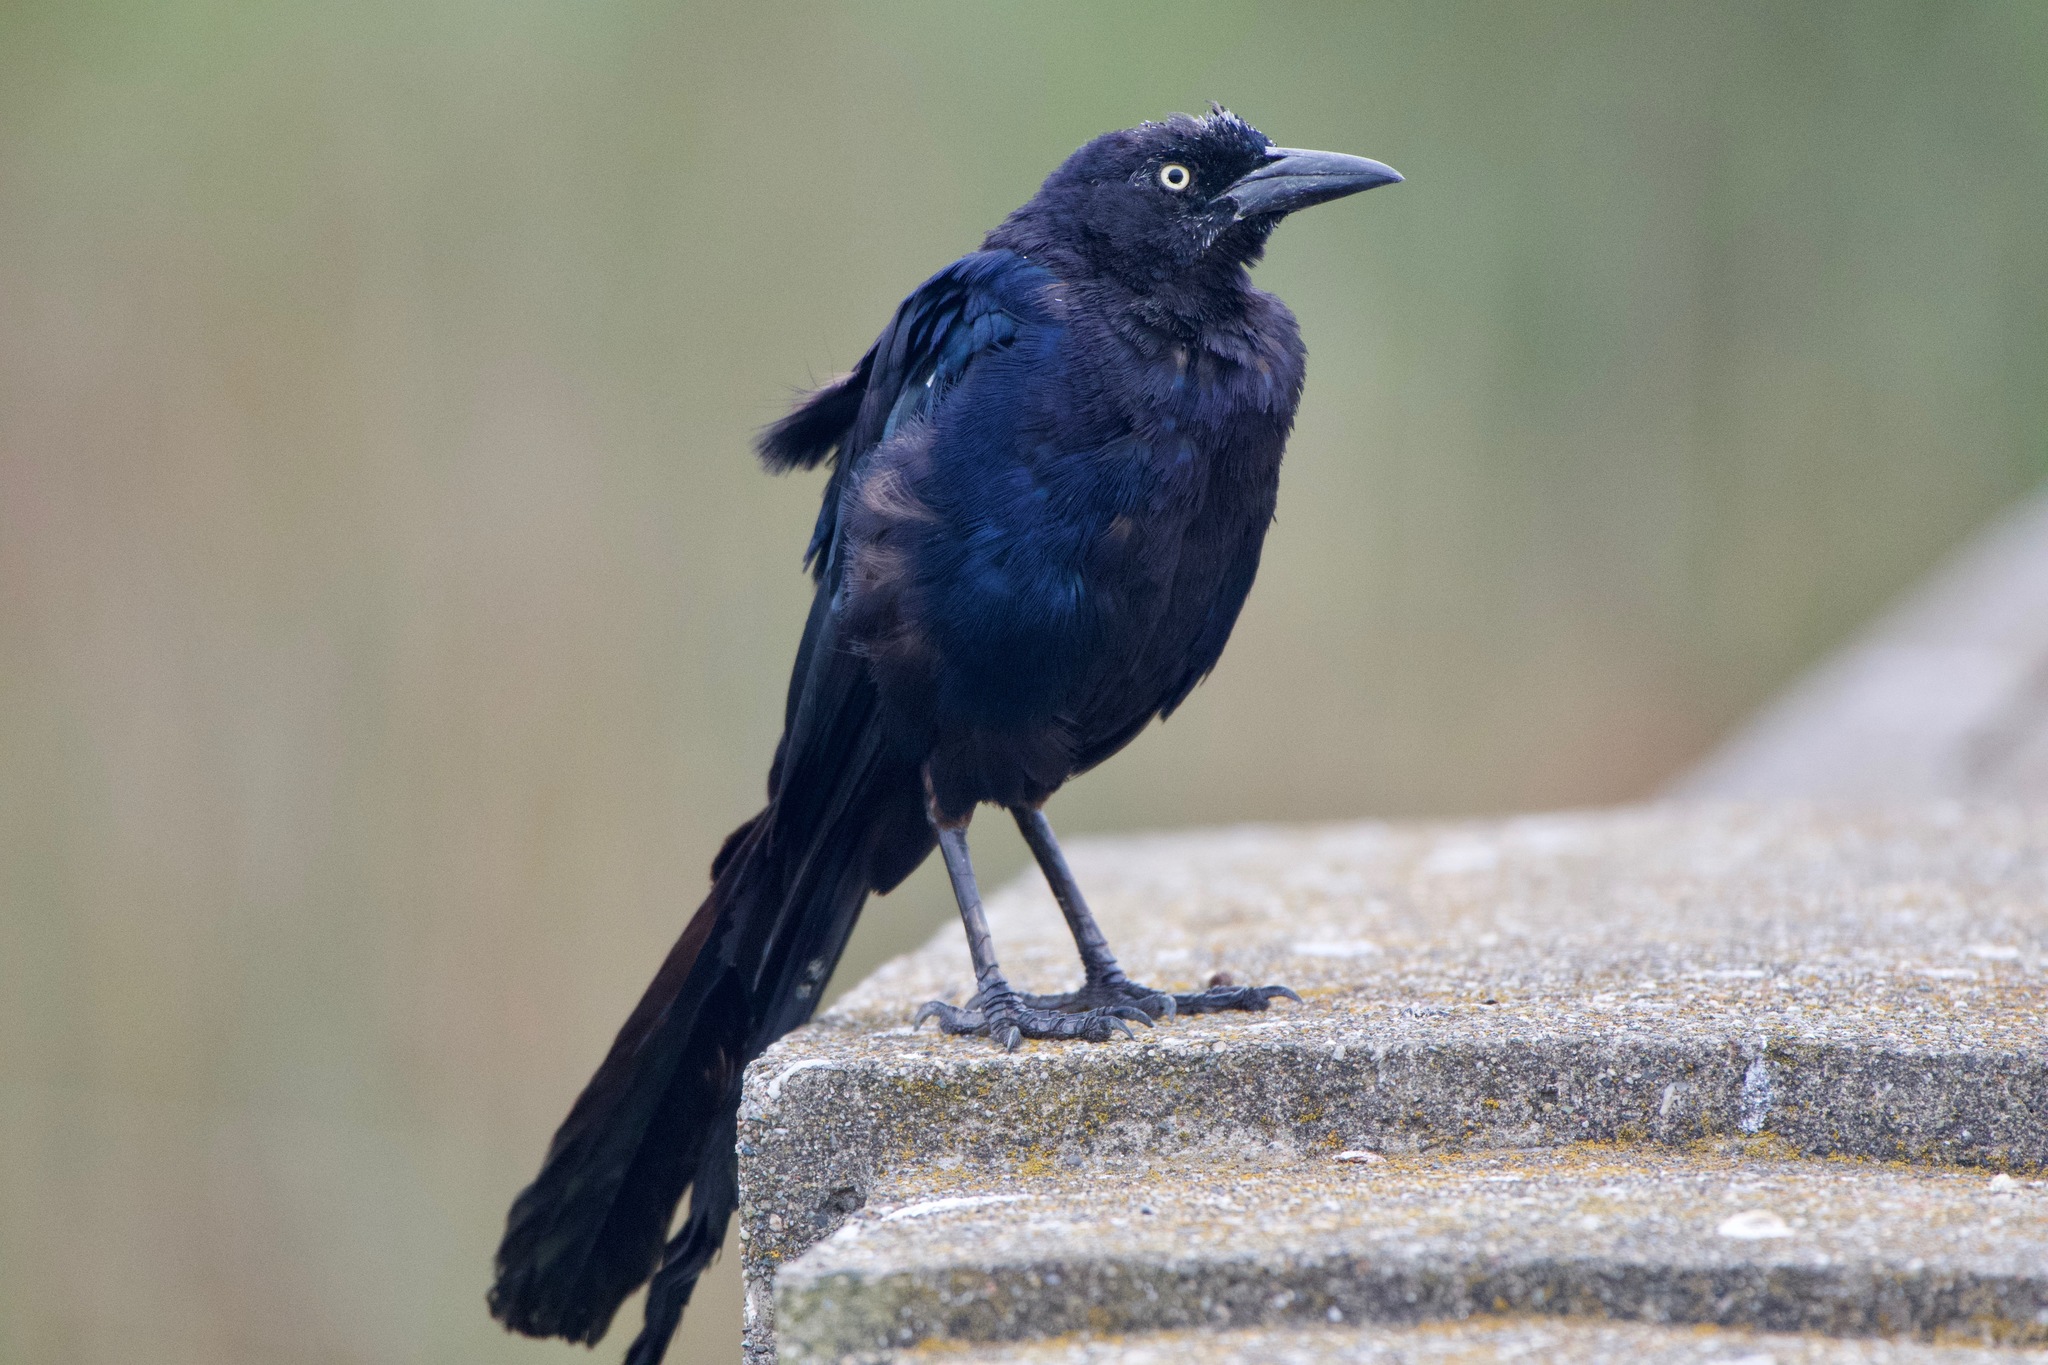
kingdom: Animalia
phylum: Chordata
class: Aves
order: Passeriformes
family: Icteridae
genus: Quiscalus
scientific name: Quiscalus mexicanus
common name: Great-tailed grackle
